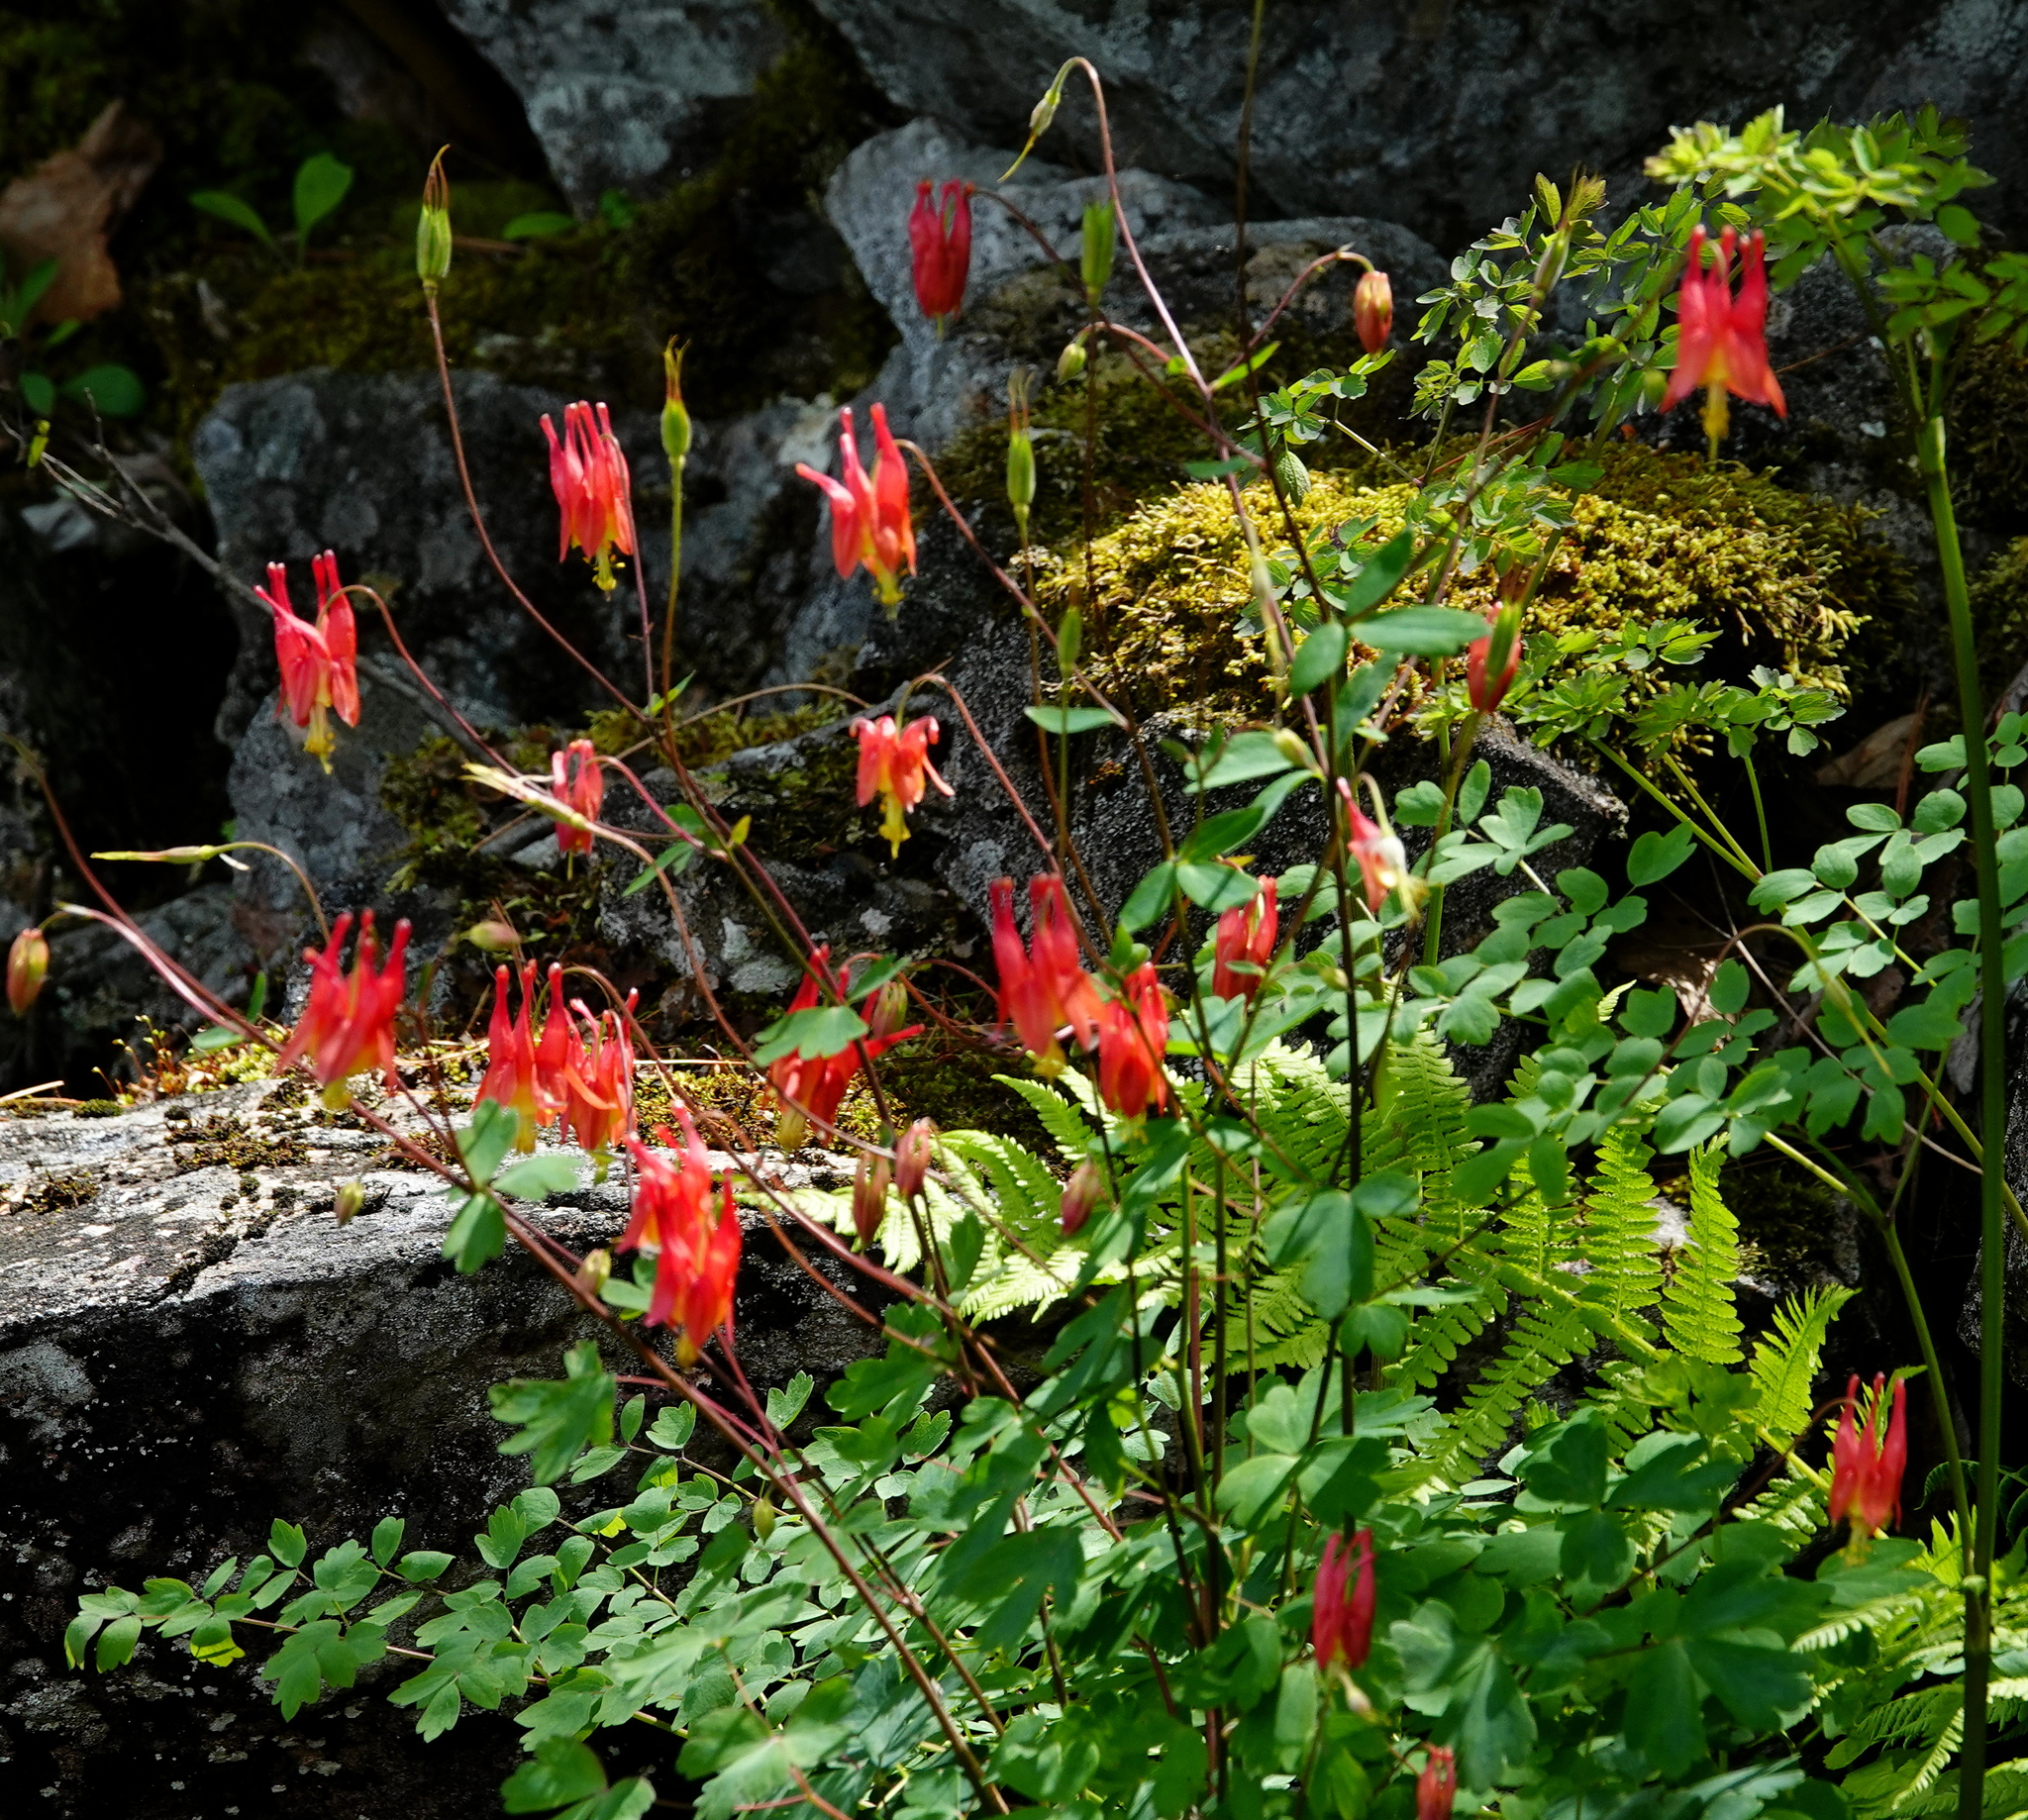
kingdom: Plantae
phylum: Tracheophyta
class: Magnoliopsida
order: Ranunculales
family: Ranunculaceae
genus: Aquilegia
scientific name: Aquilegia canadensis
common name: American columbine
